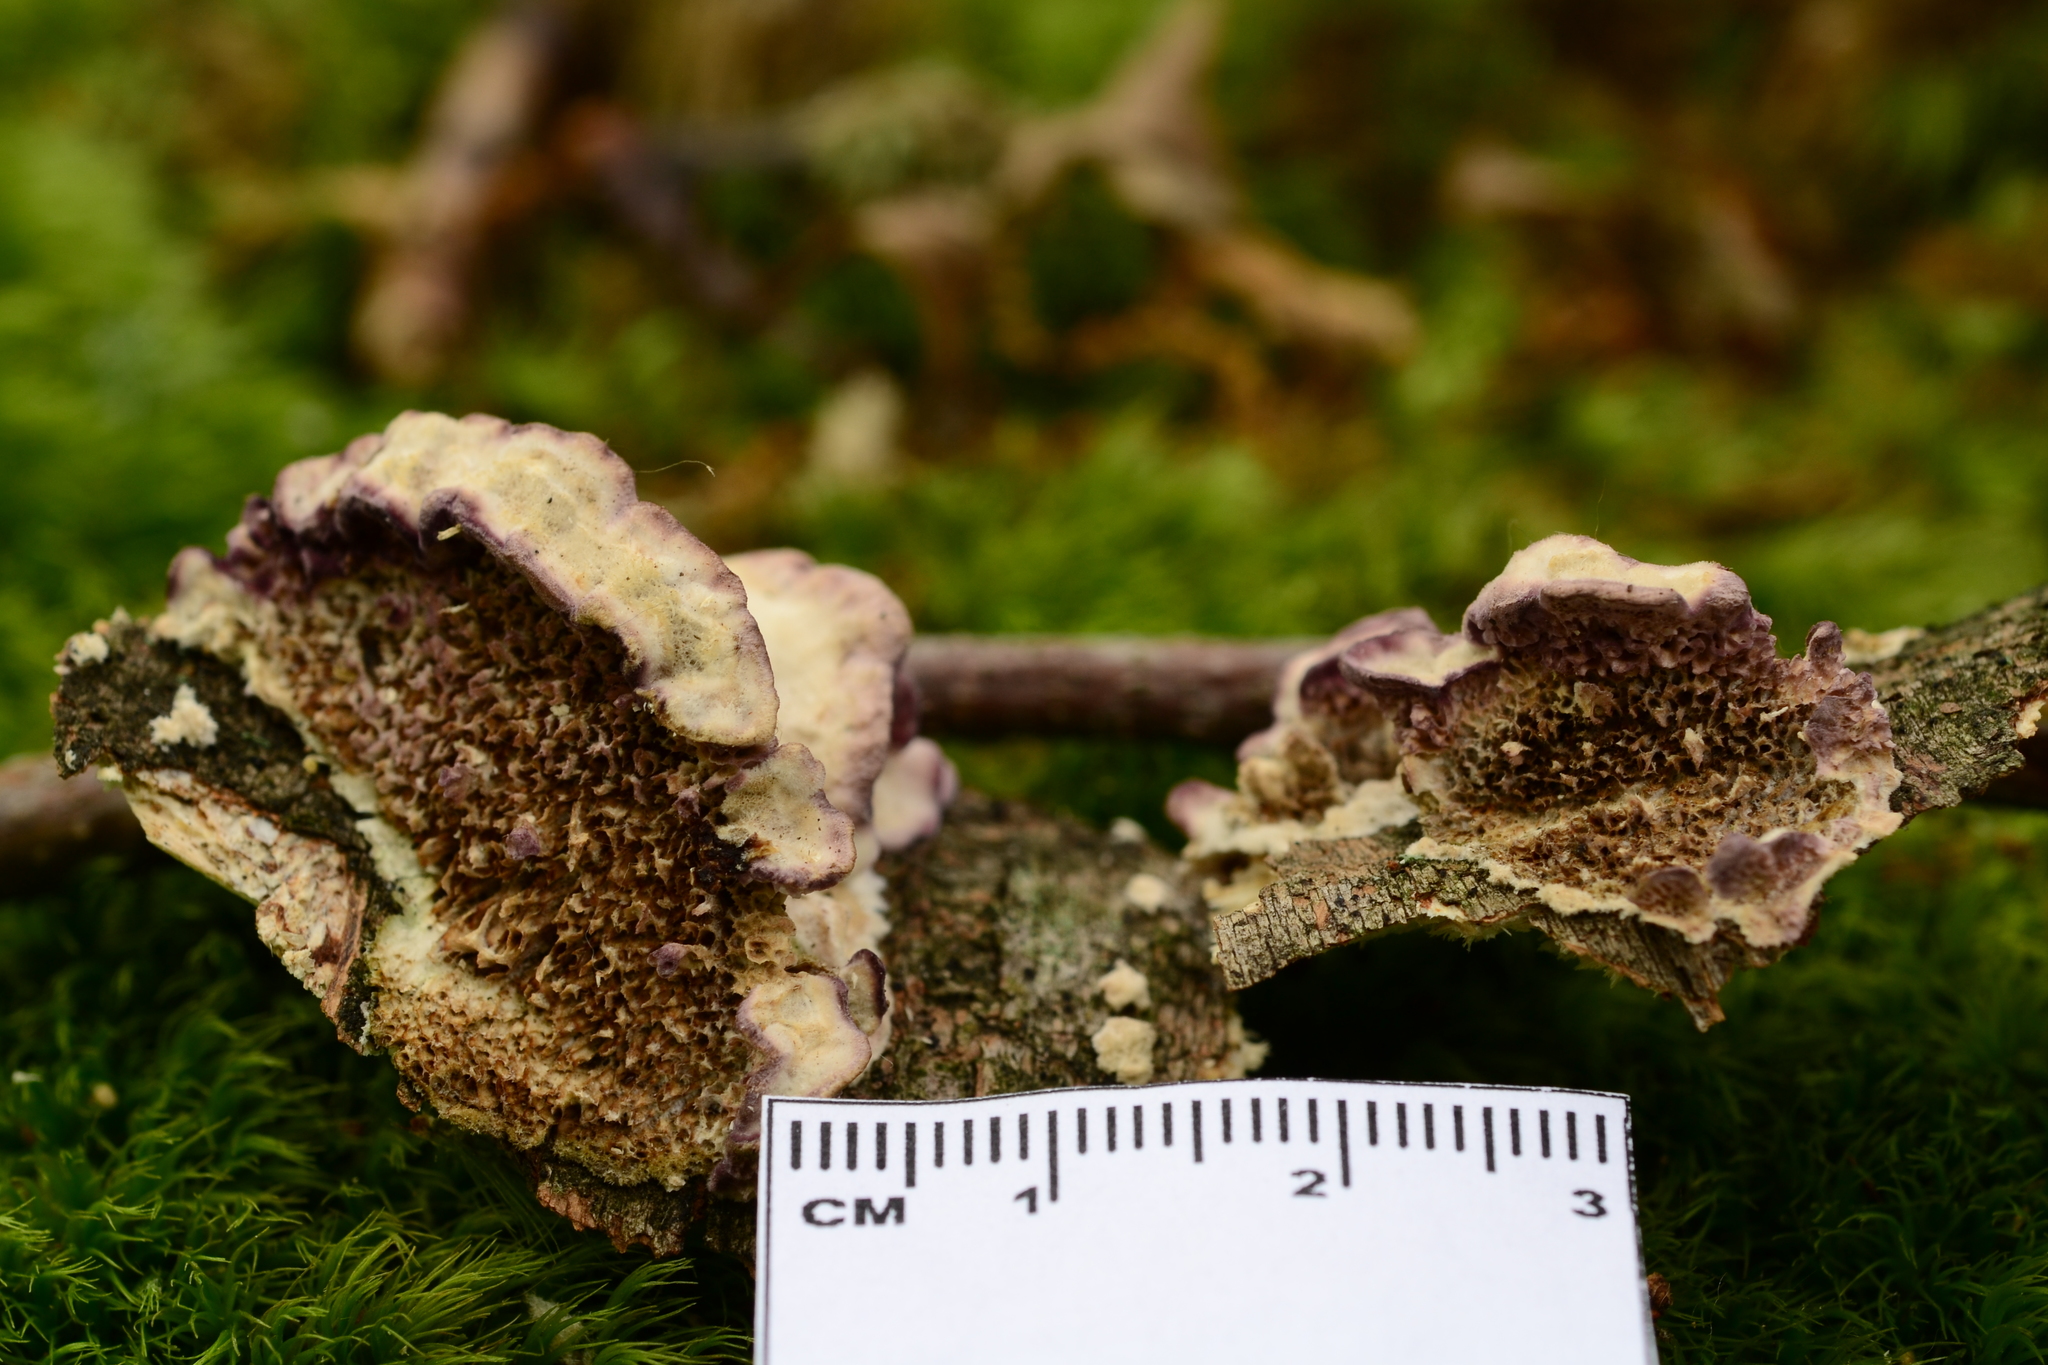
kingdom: Fungi
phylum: Basidiomycota
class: Agaricomycetes
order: Hymenochaetales
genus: Trichaptum
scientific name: Trichaptum biforme
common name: Violet-toothed polypore
